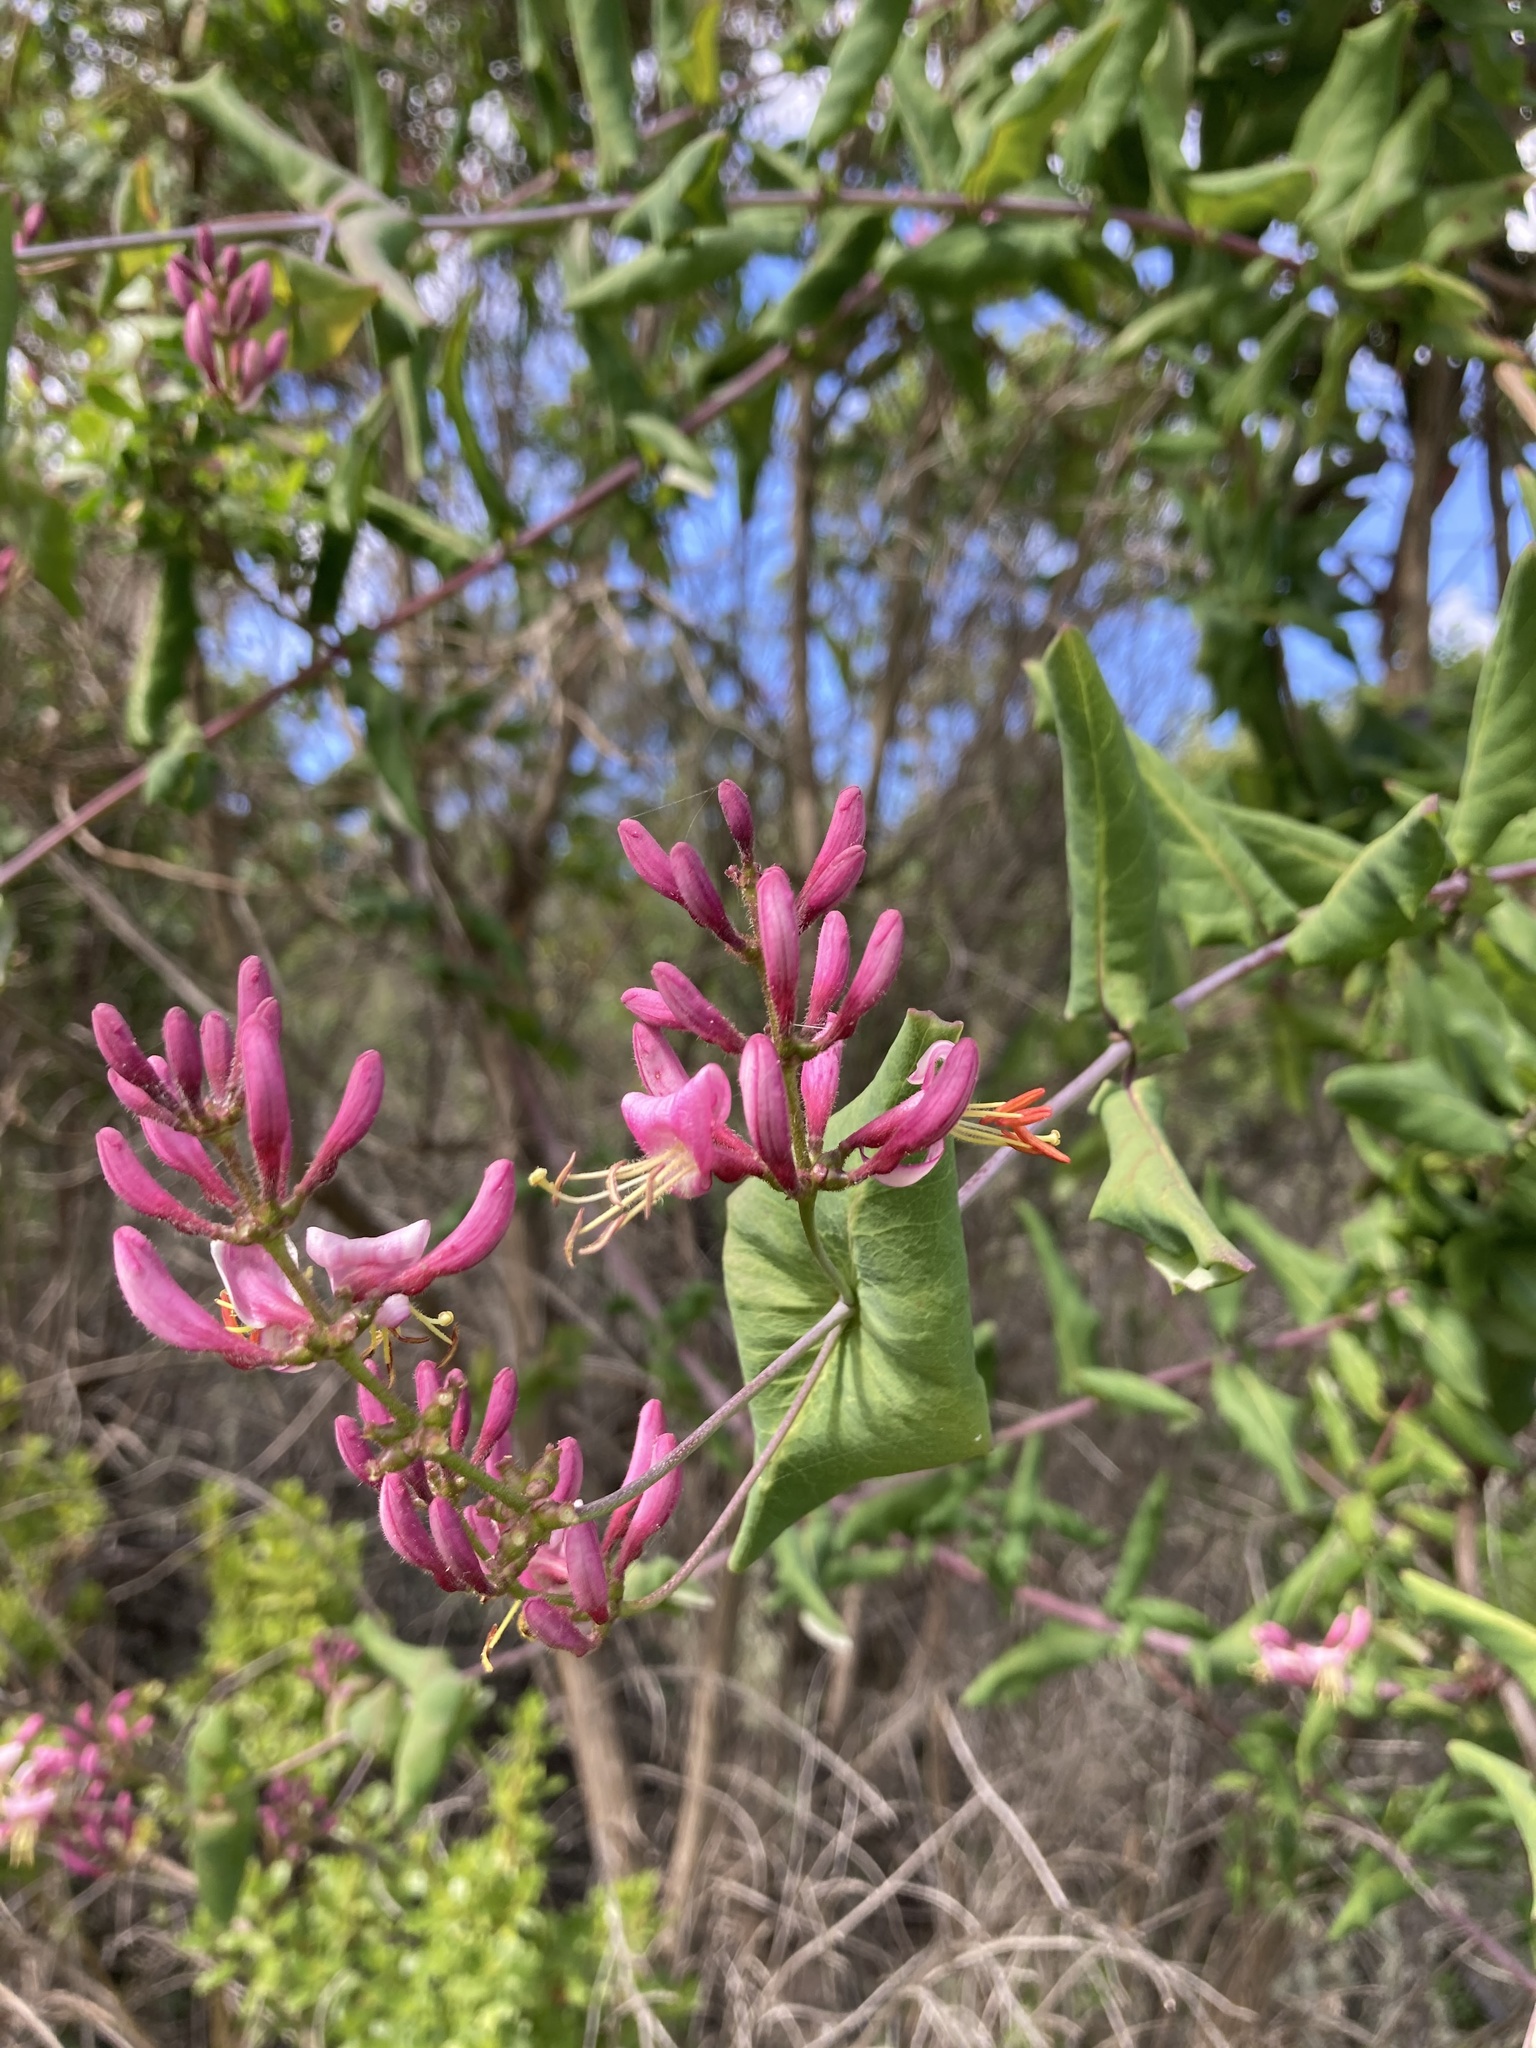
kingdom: Plantae
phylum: Tracheophyta
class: Magnoliopsida
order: Dipsacales
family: Caprifoliaceae
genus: Lonicera
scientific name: Lonicera hispidula
